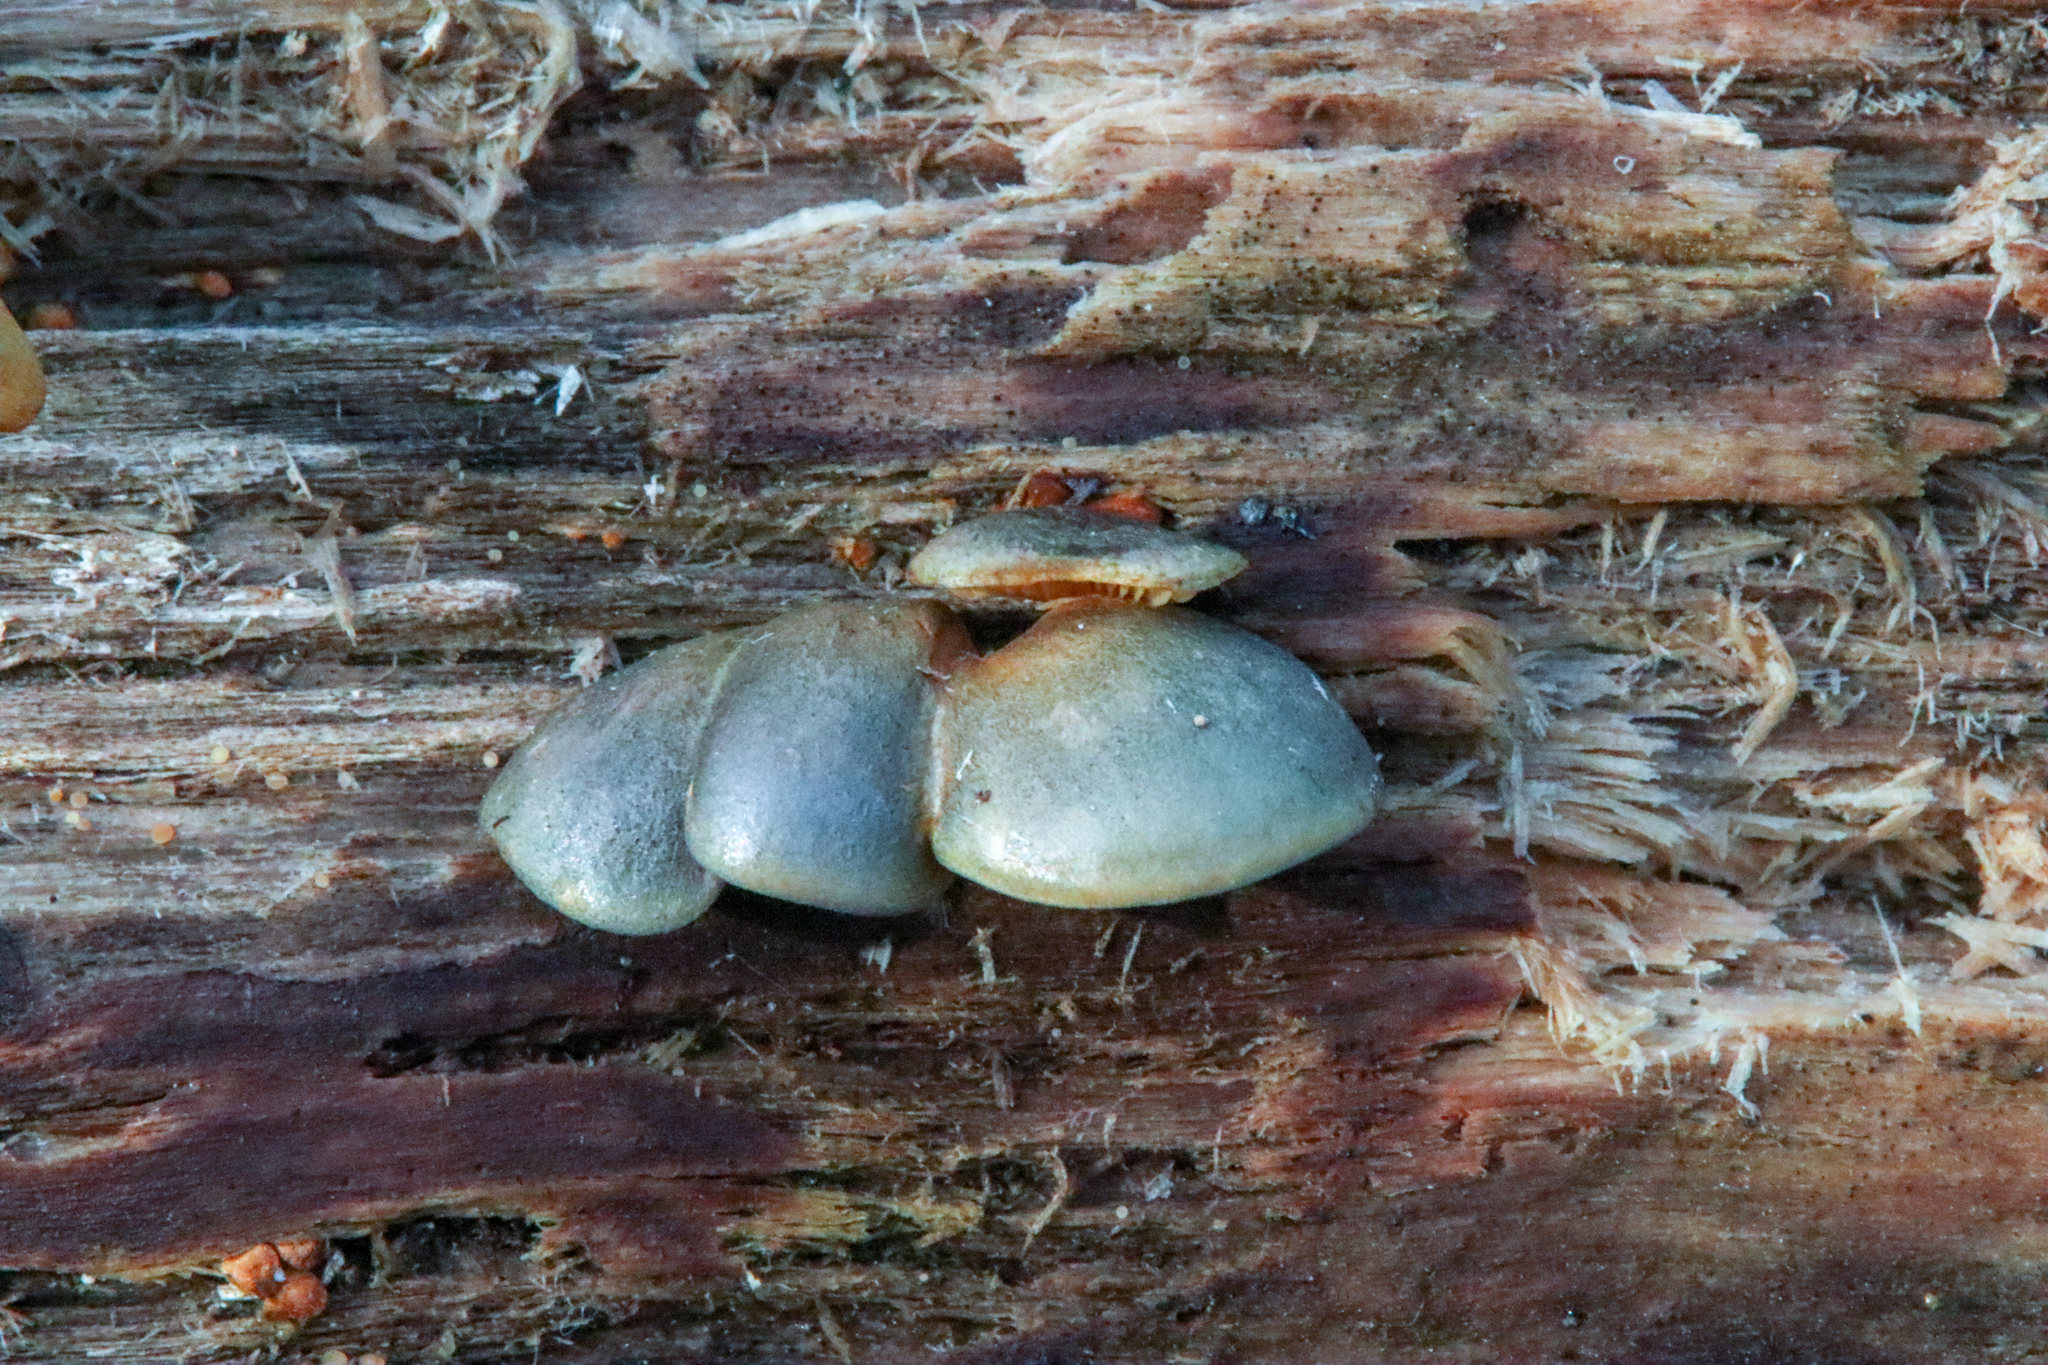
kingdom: Fungi
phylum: Basidiomycota
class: Agaricomycetes
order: Agaricales
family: Sarcomyxaceae
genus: Sarcomyxa
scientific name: Sarcomyxa serotina
